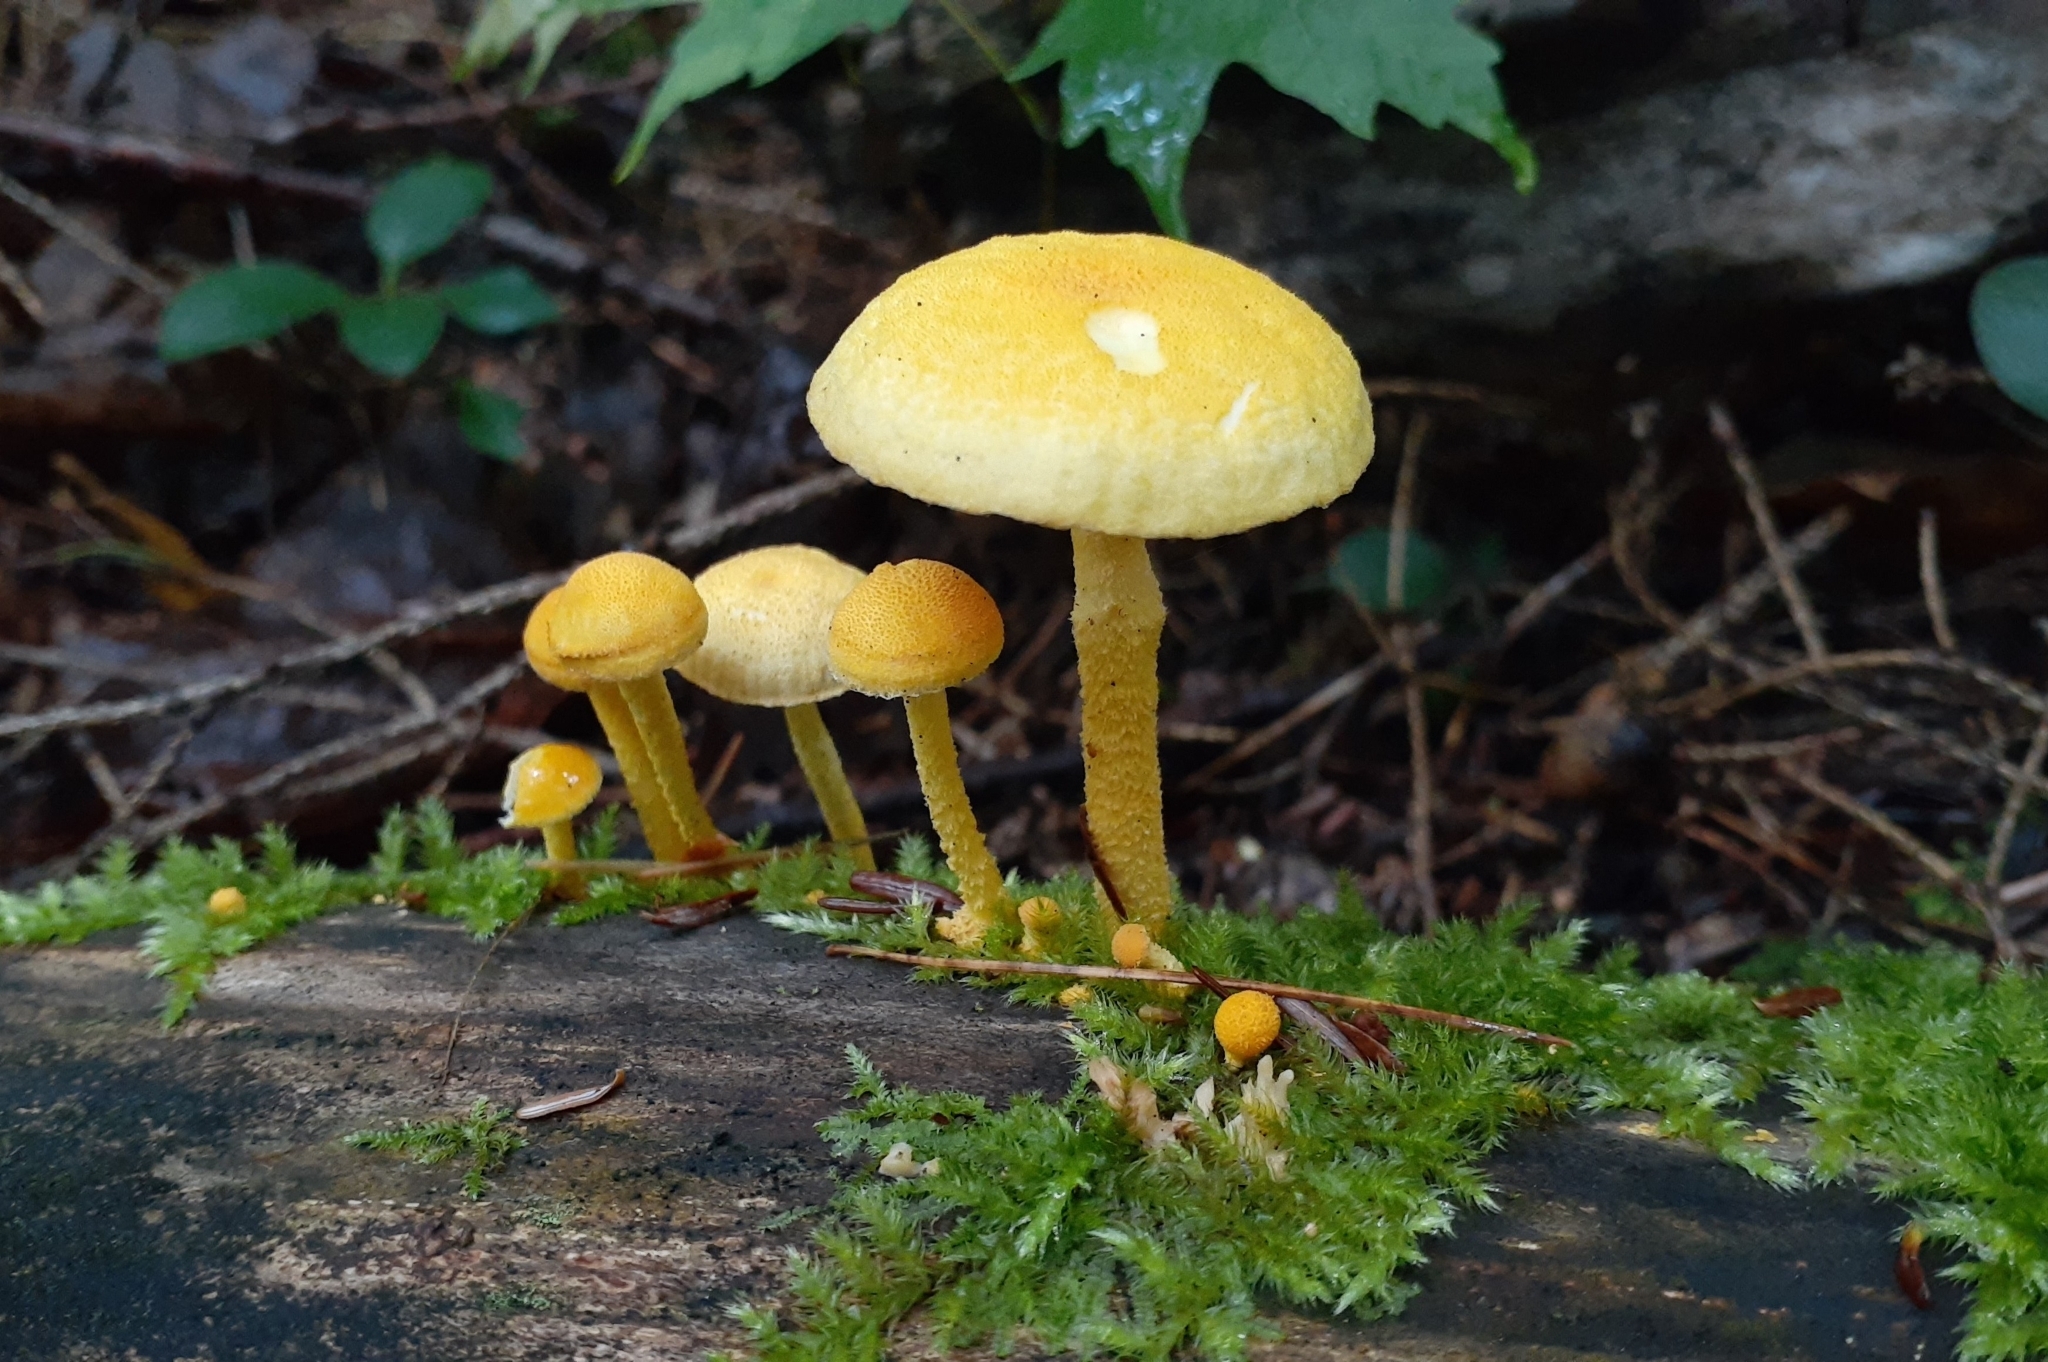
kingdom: Fungi
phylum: Basidiomycota
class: Agaricomycetes
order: Agaricales
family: Physalacriaceae
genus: Cyptotrama
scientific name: Cyptotrama chrysopepla
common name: Golden coincap
